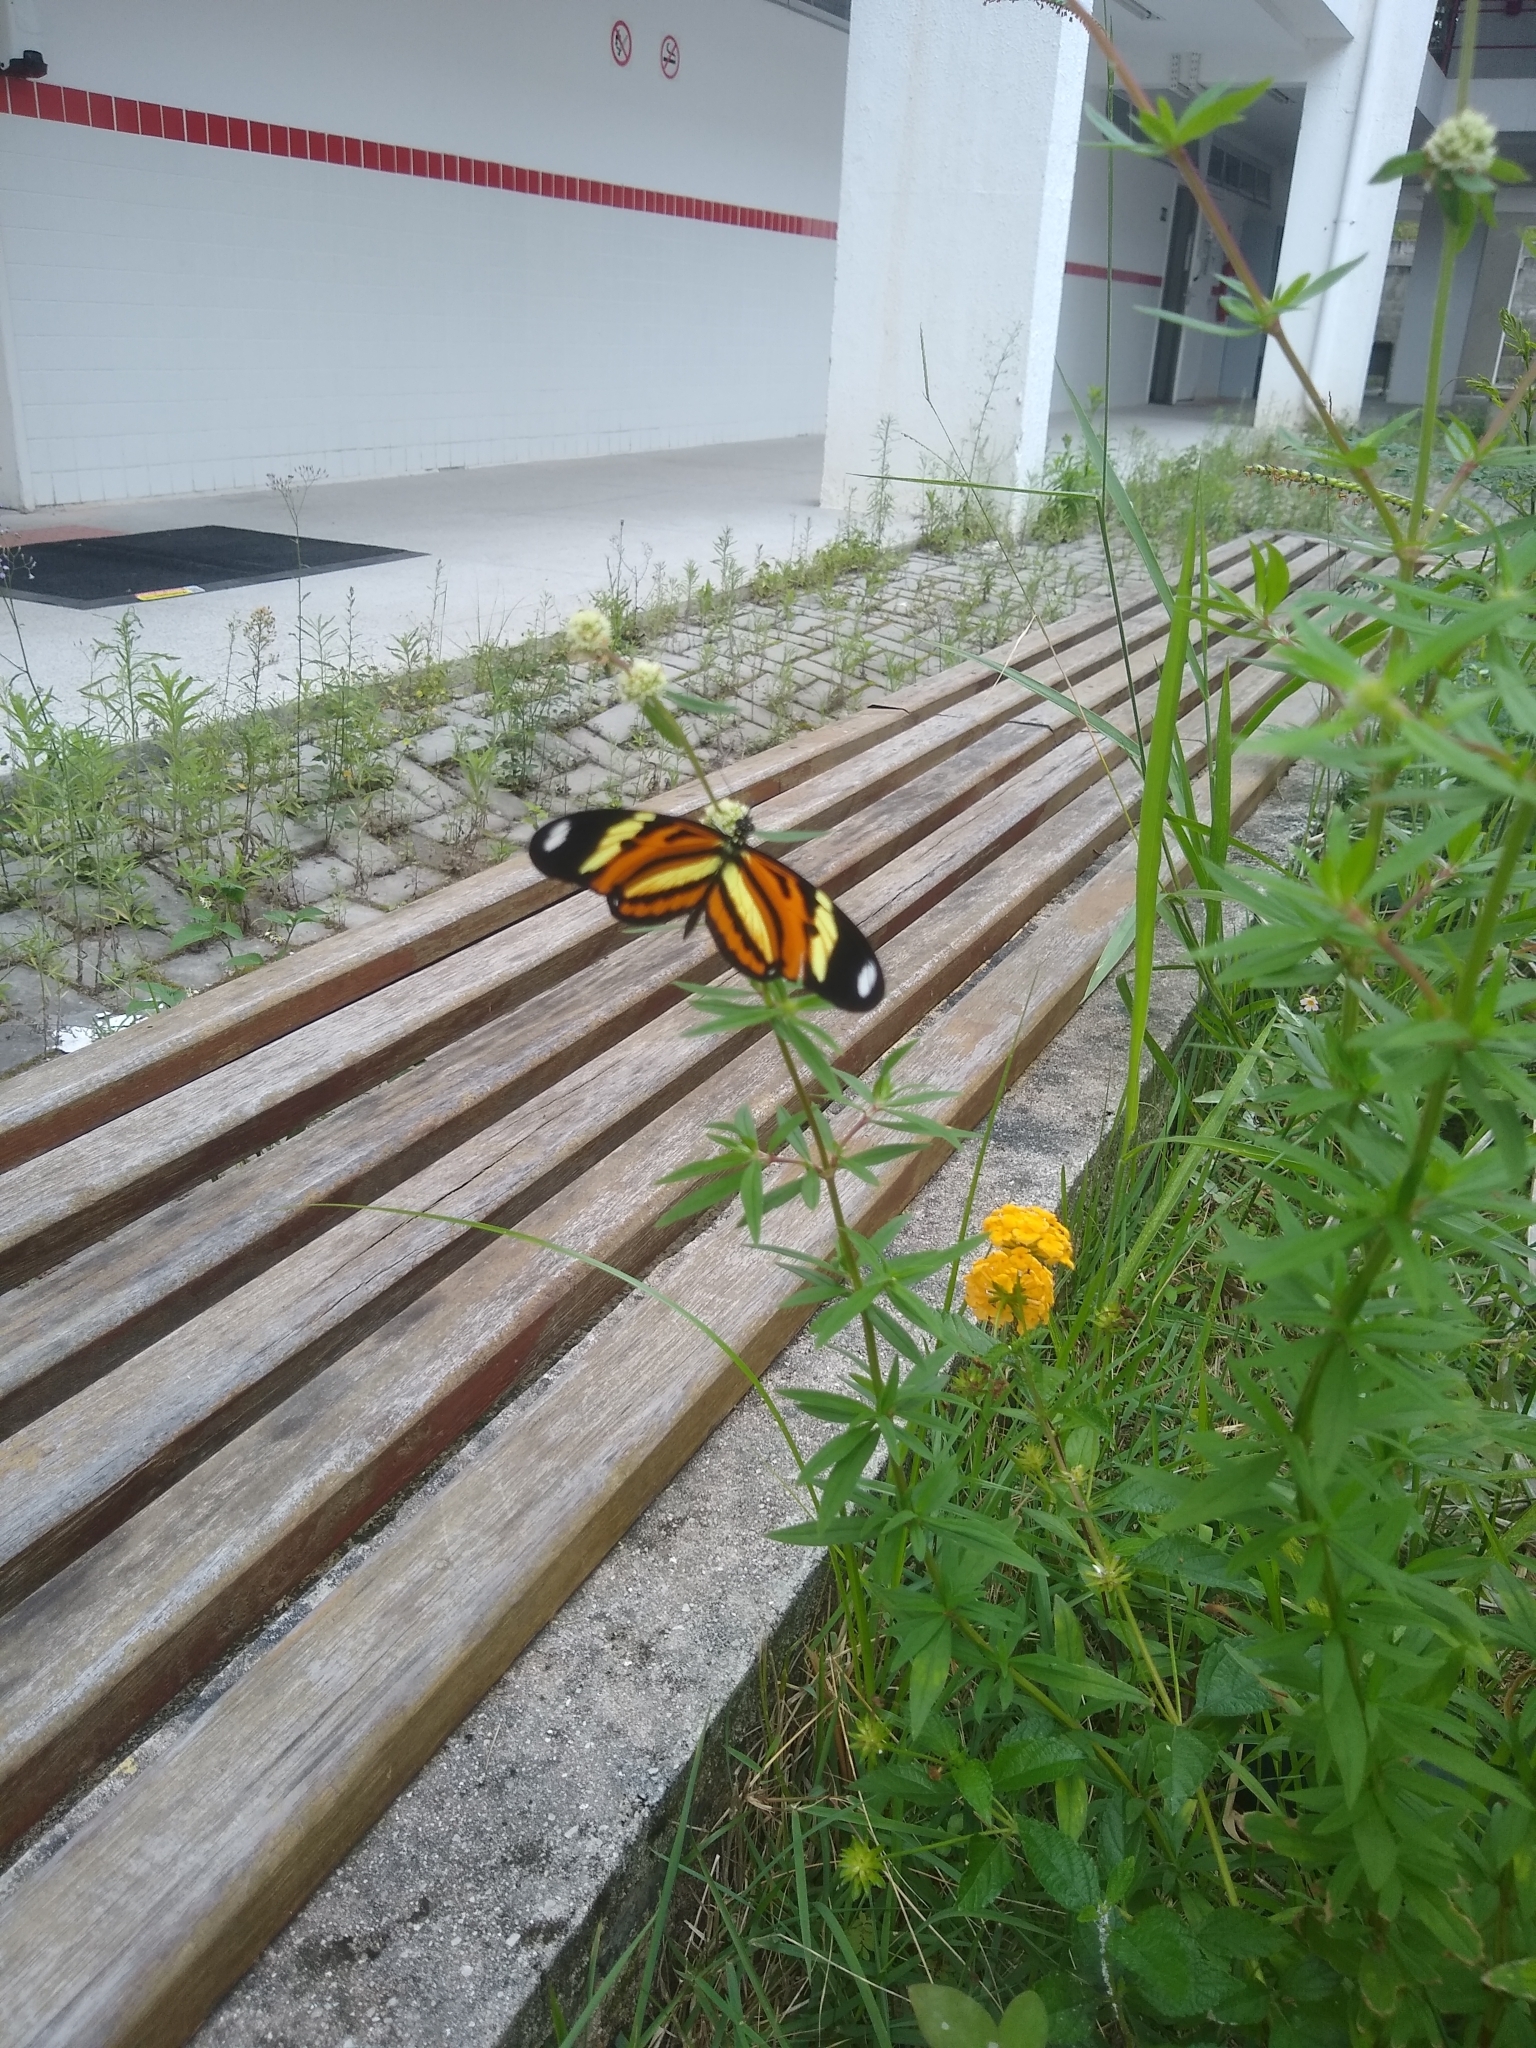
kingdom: Animalia
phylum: Arthropoda
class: Insecta
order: Lepidoptera
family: Nymphalidae
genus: Heliconius
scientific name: Heliconius ethilla
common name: Ethilia longwing
